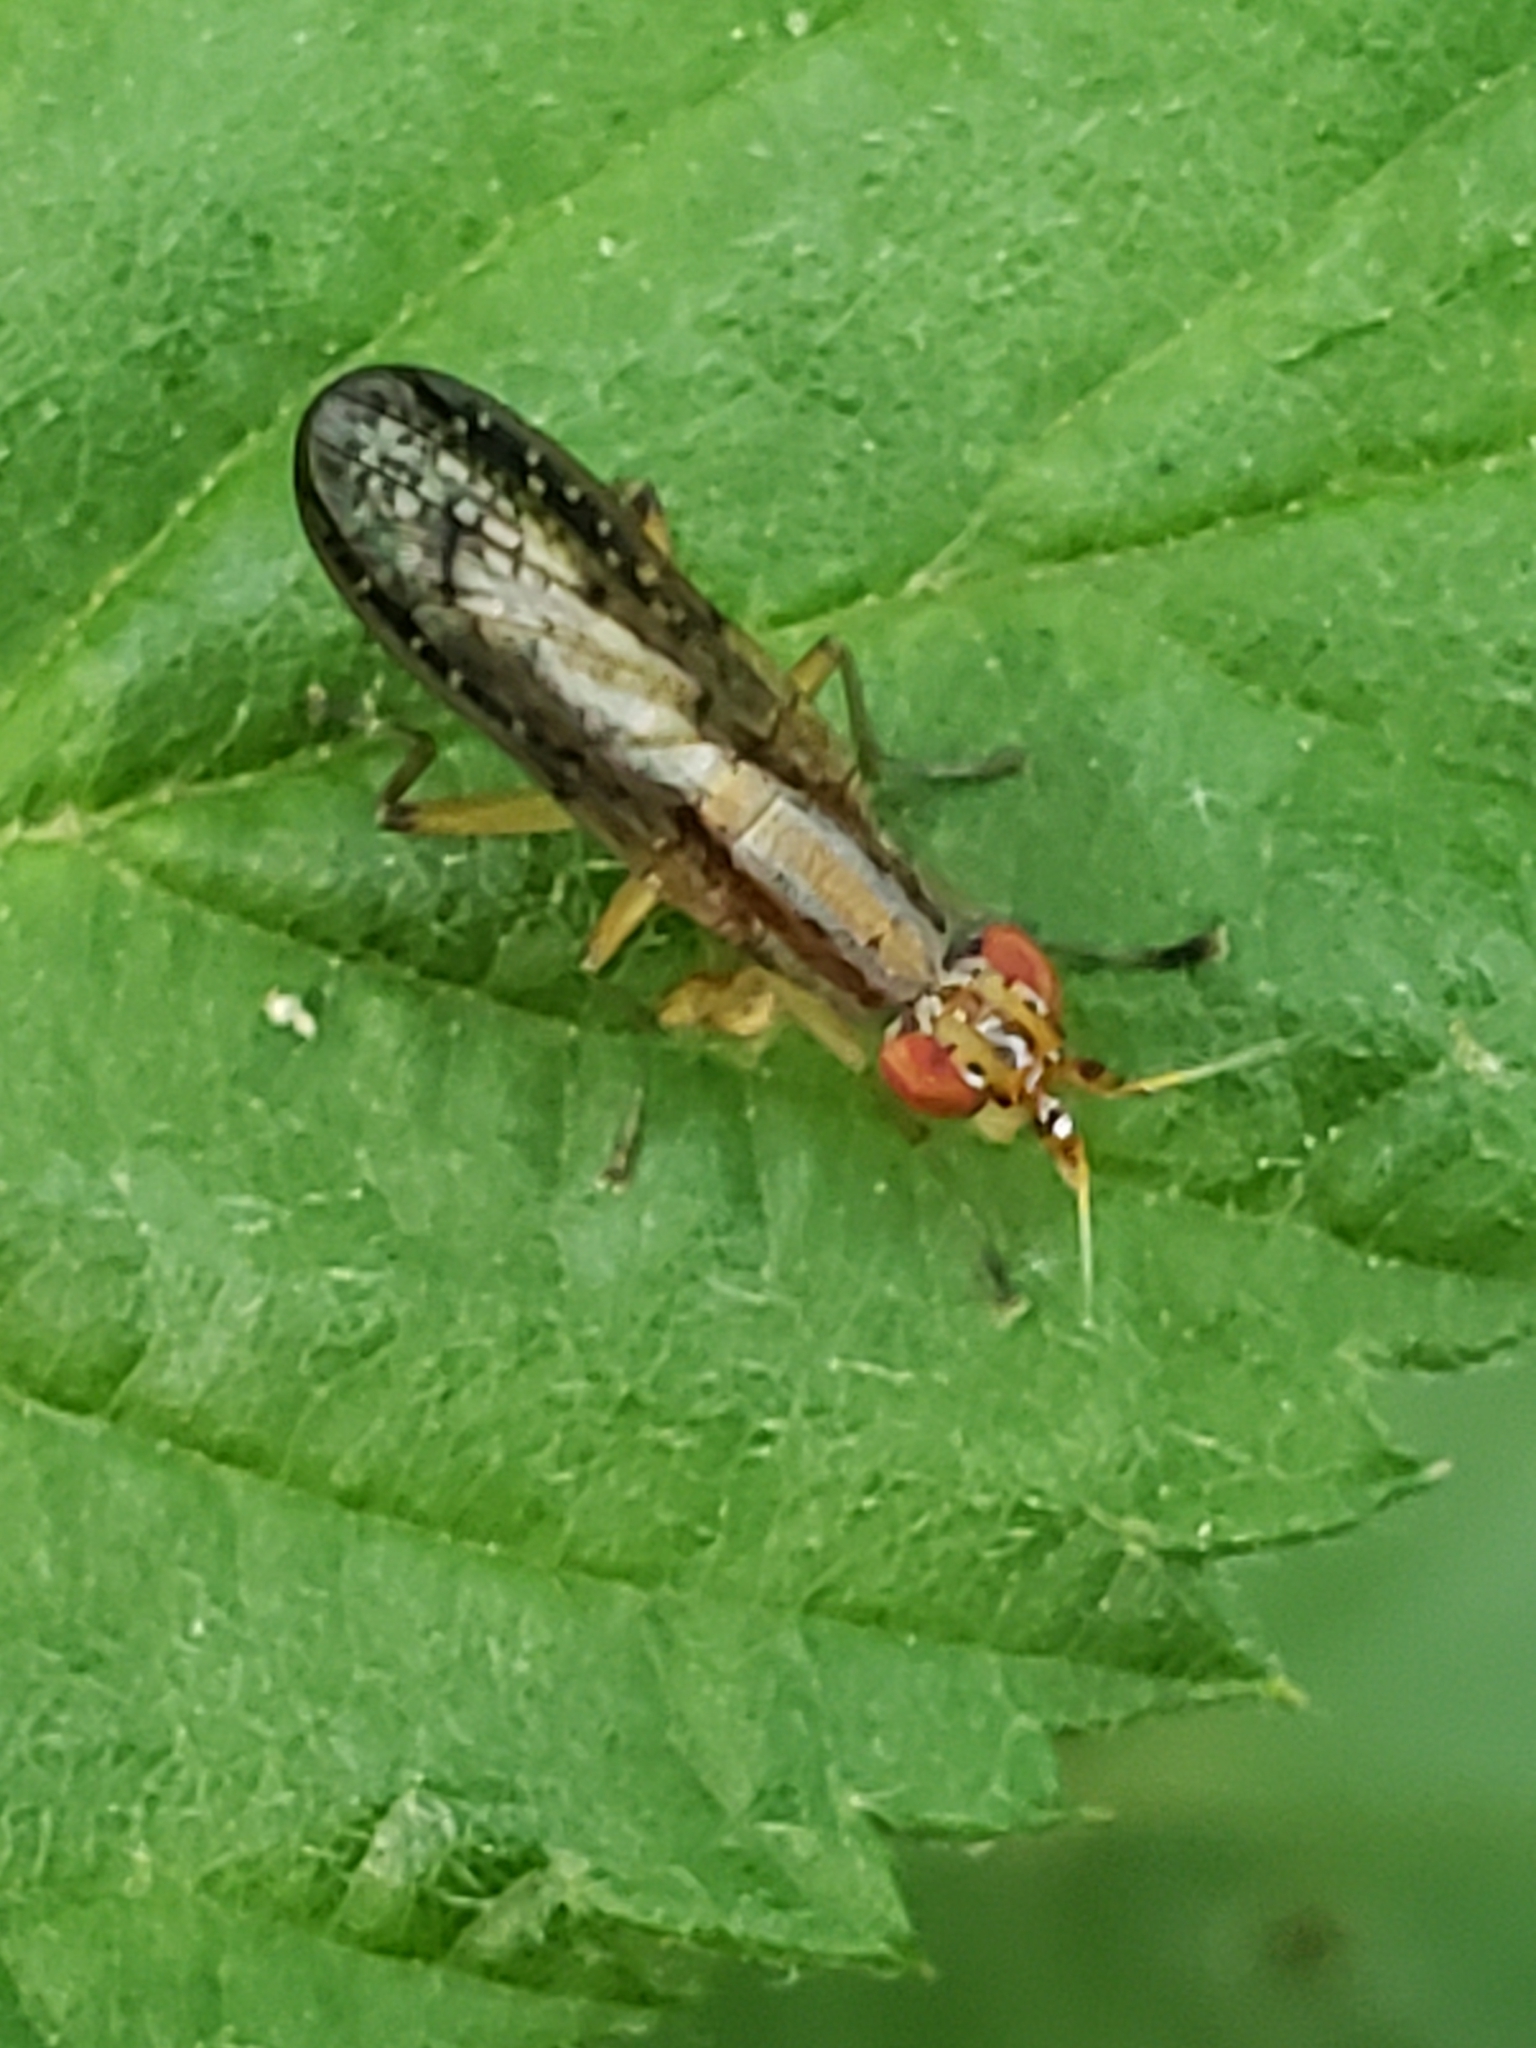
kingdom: Animalia
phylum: Arthropoda
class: Insecta
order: Diptera
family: Sciomyzidae
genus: Limnia
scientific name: Limnia shannoni
